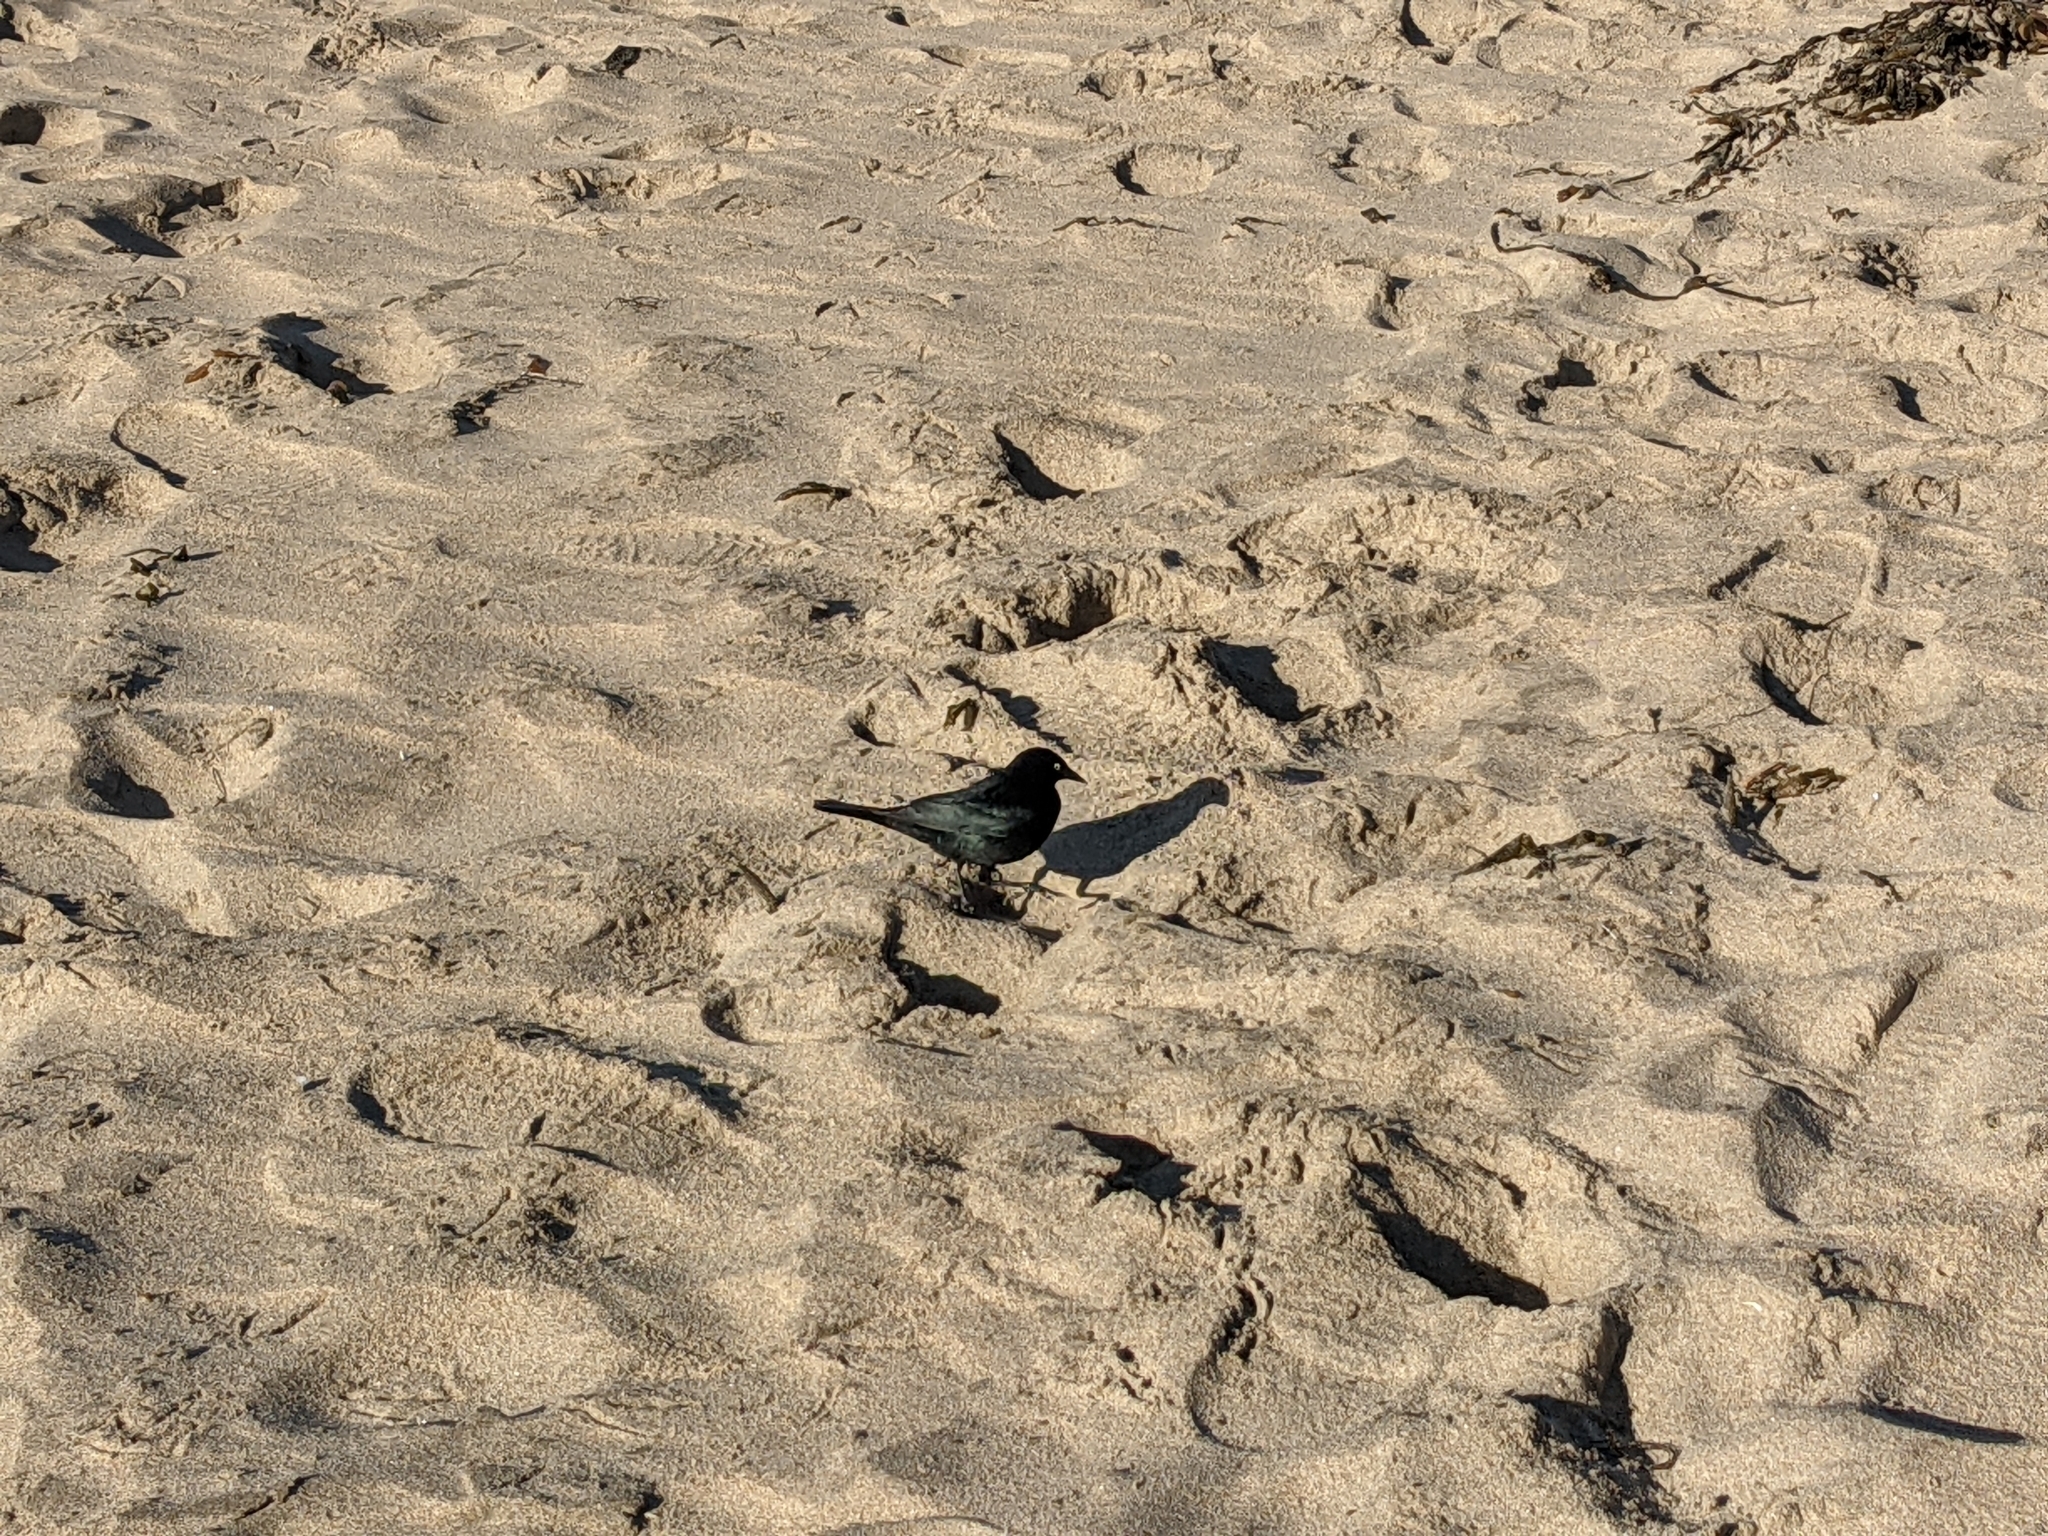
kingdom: Animalia
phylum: Chordata
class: Aves
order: Passeriformes
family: Icteridae
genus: Euphagus
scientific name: Euphagus cyanocephalus
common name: Brewer's blackbird
